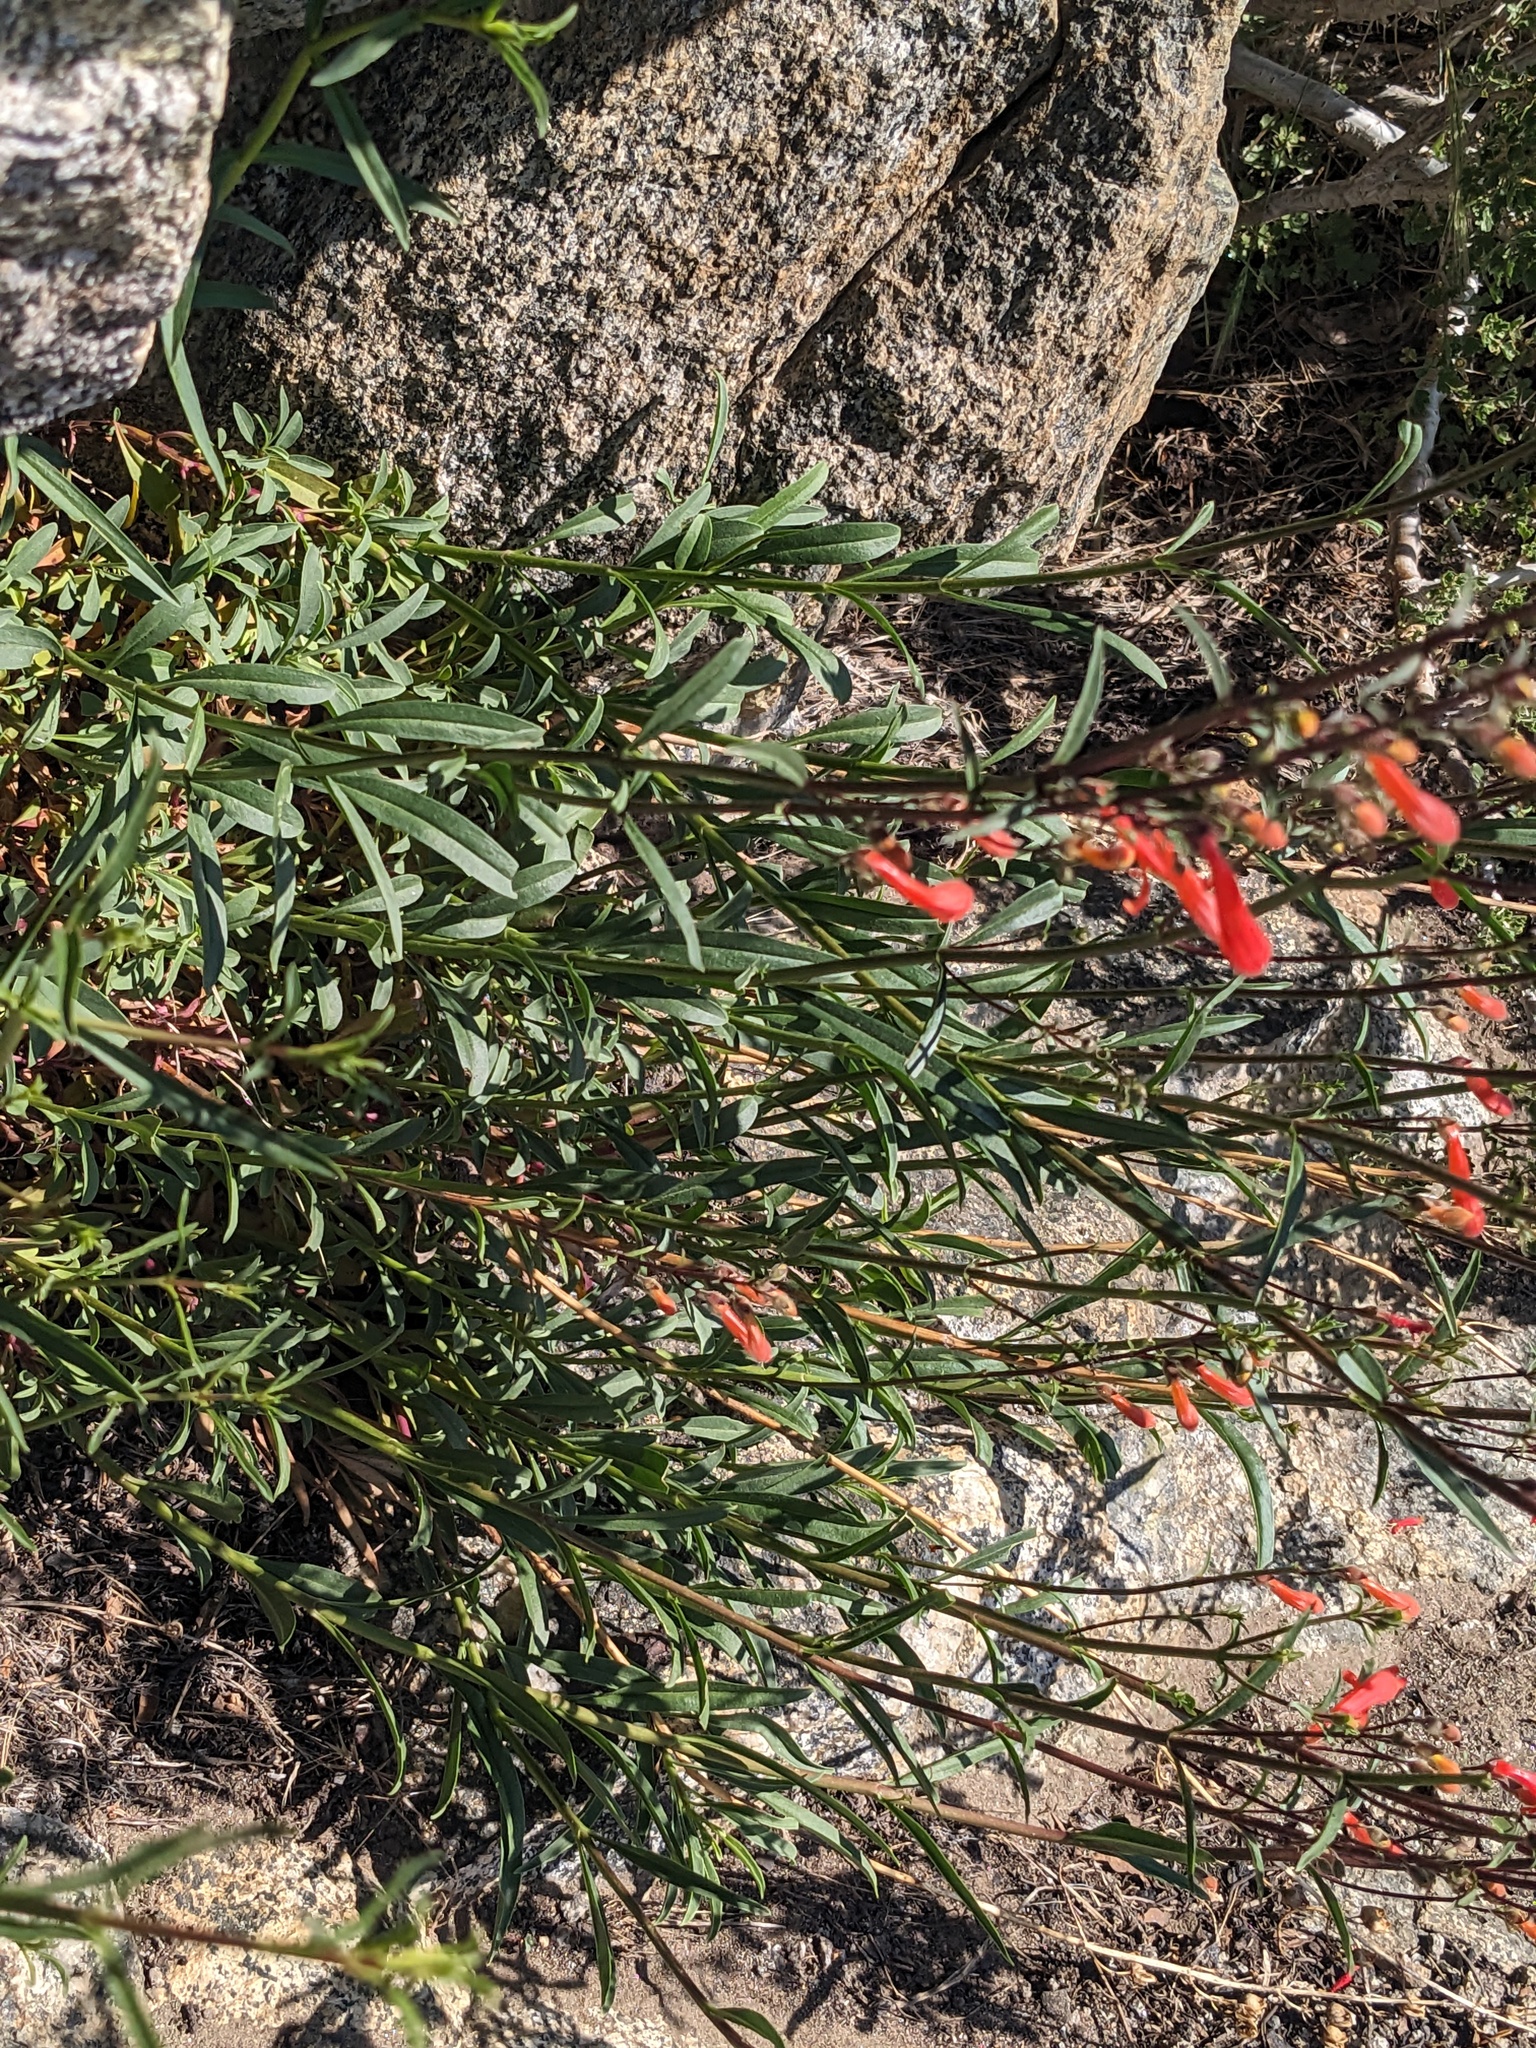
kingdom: Plantae
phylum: Tracheophyta
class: Magnoliopsida
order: Lamiales
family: Plantaginaceae
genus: Penstemon
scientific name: Penstemon rostriflorus
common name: Bridges's penstemon
